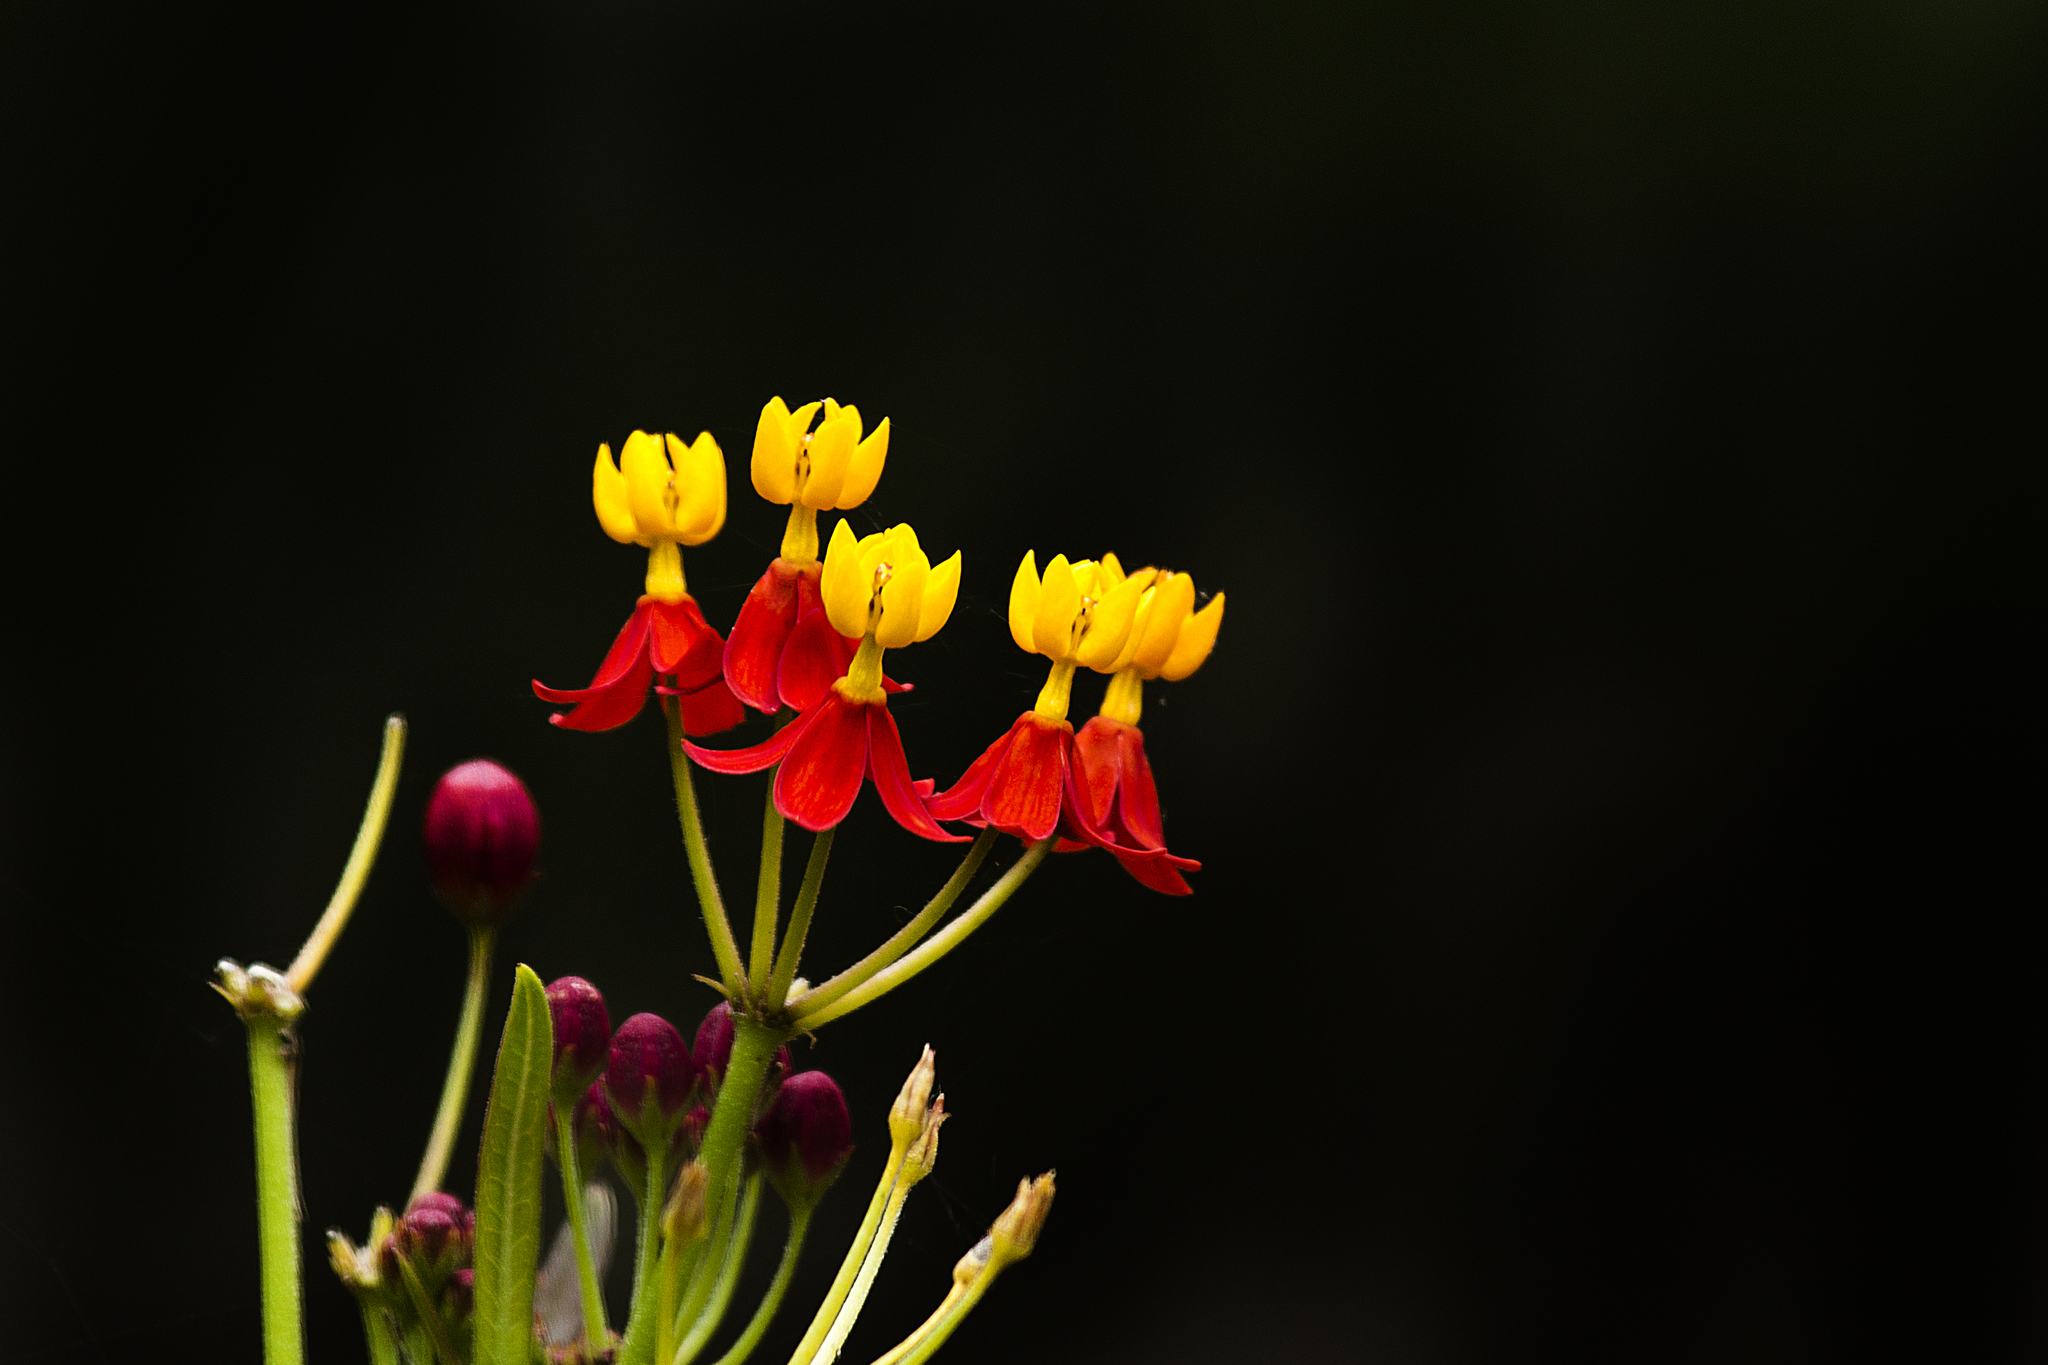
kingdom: Plantae
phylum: Tracheophyta
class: Magnoliopsida
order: Gentianales
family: Apocynaceae
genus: Asclepias
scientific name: Asclepias curassavica
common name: Bloodflower
